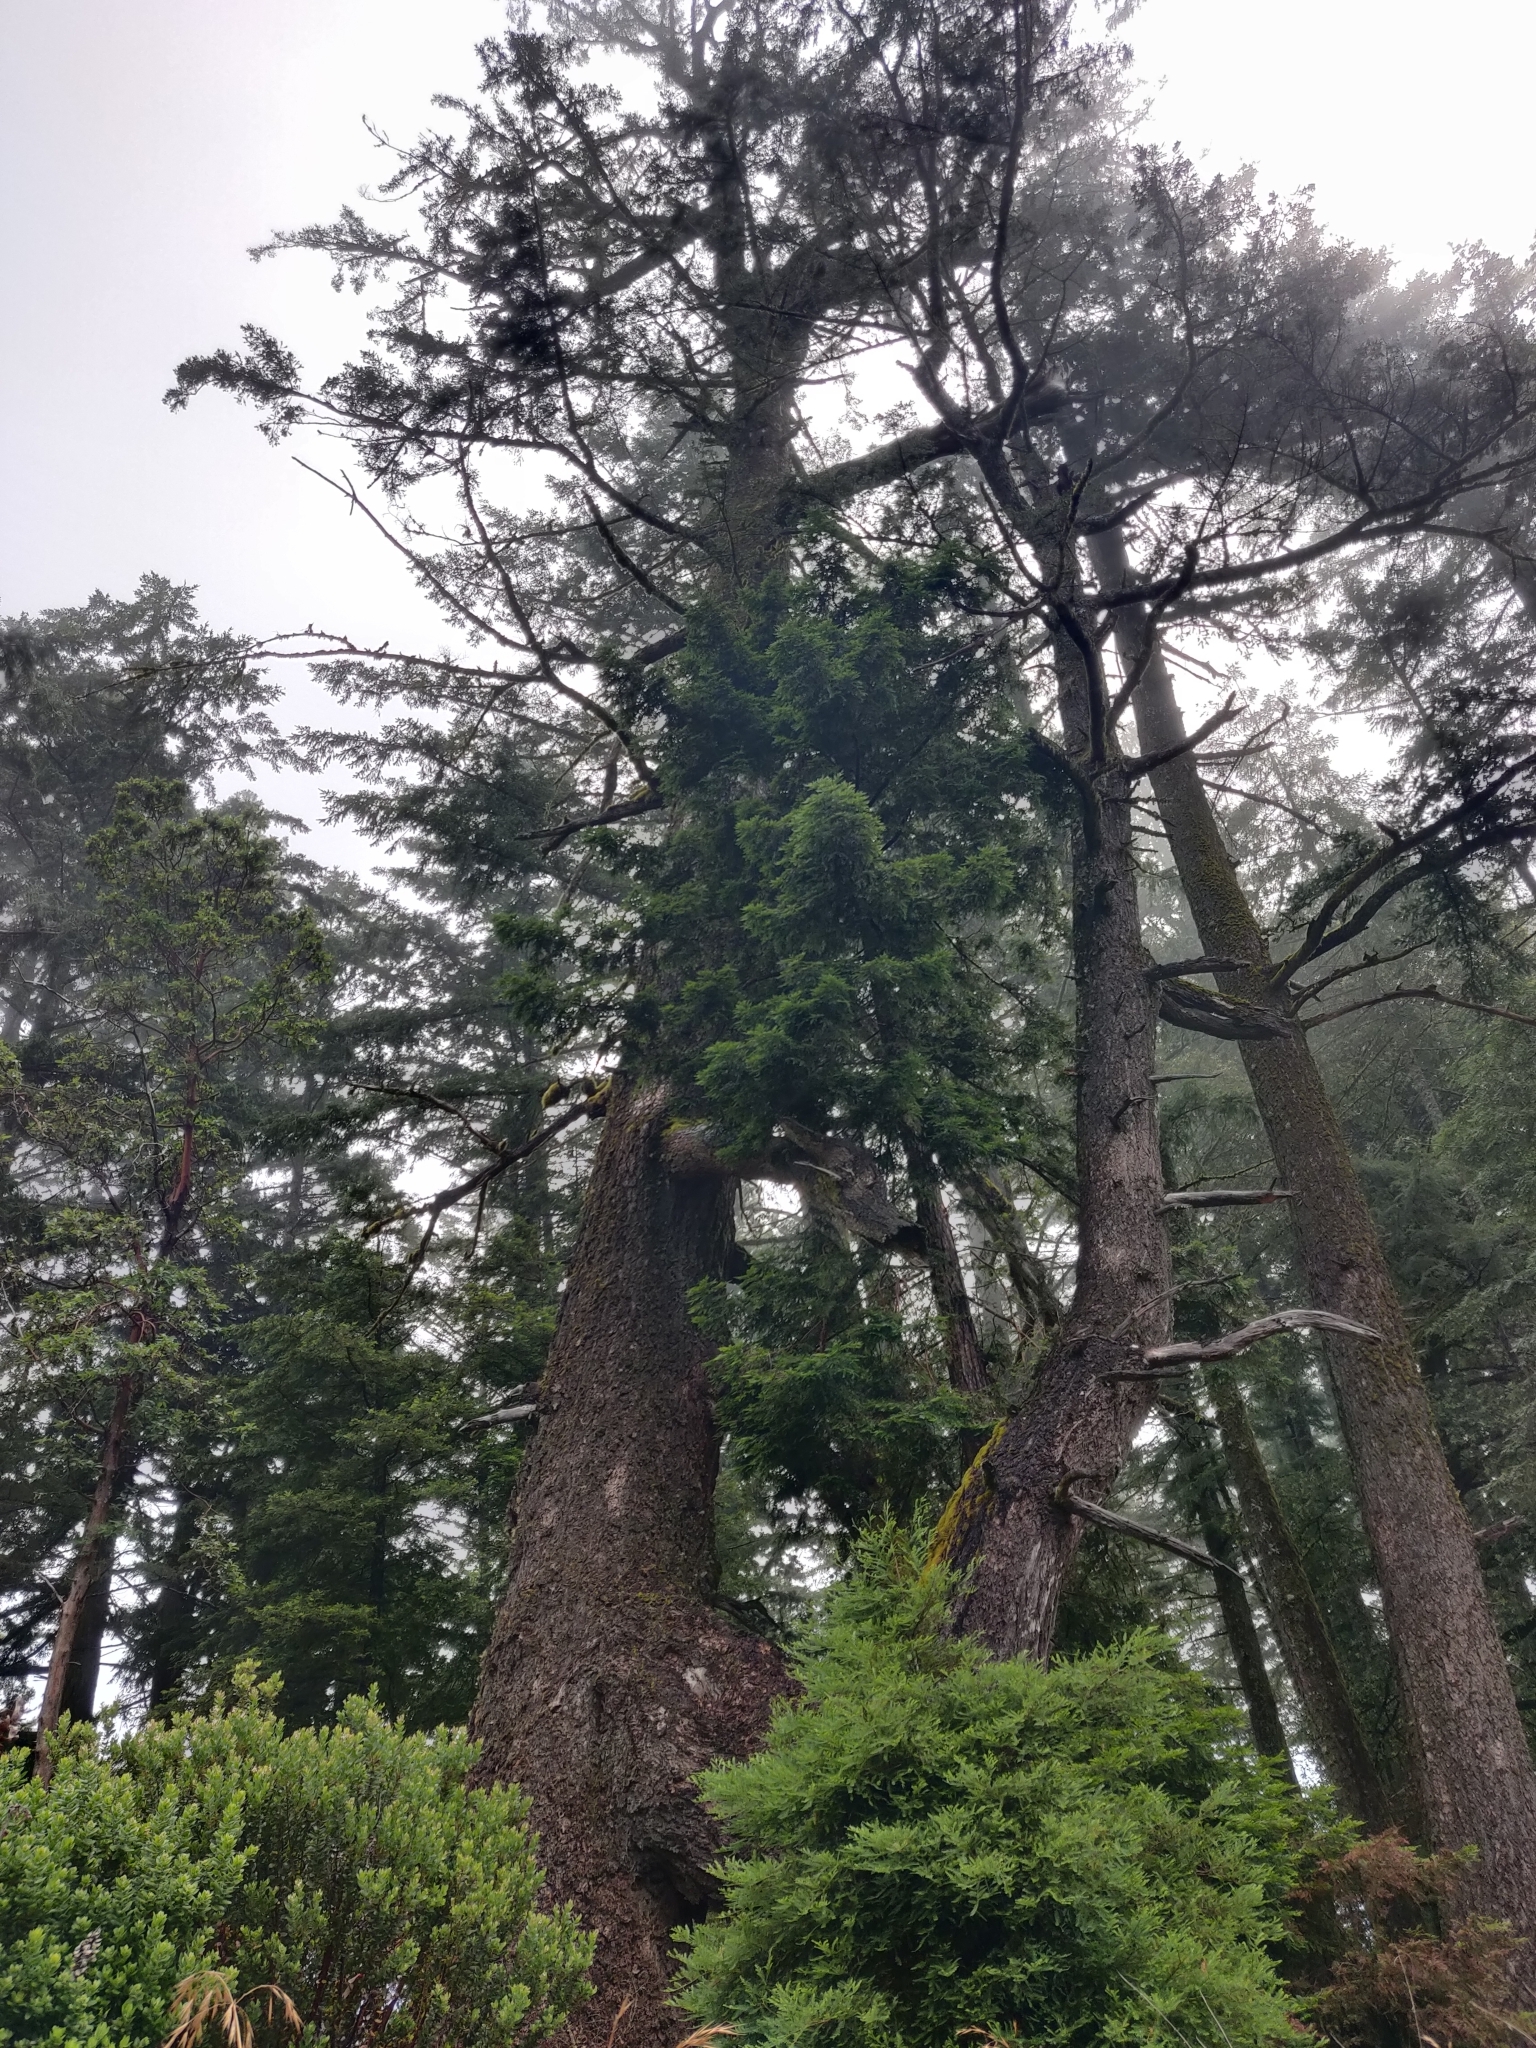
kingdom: Plantae
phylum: Tracheophyta
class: Pinopsida
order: Pinales
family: Pinaceae
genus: Pseudotsuga
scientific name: Pseudotsuga menziesii
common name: Douglas fir
